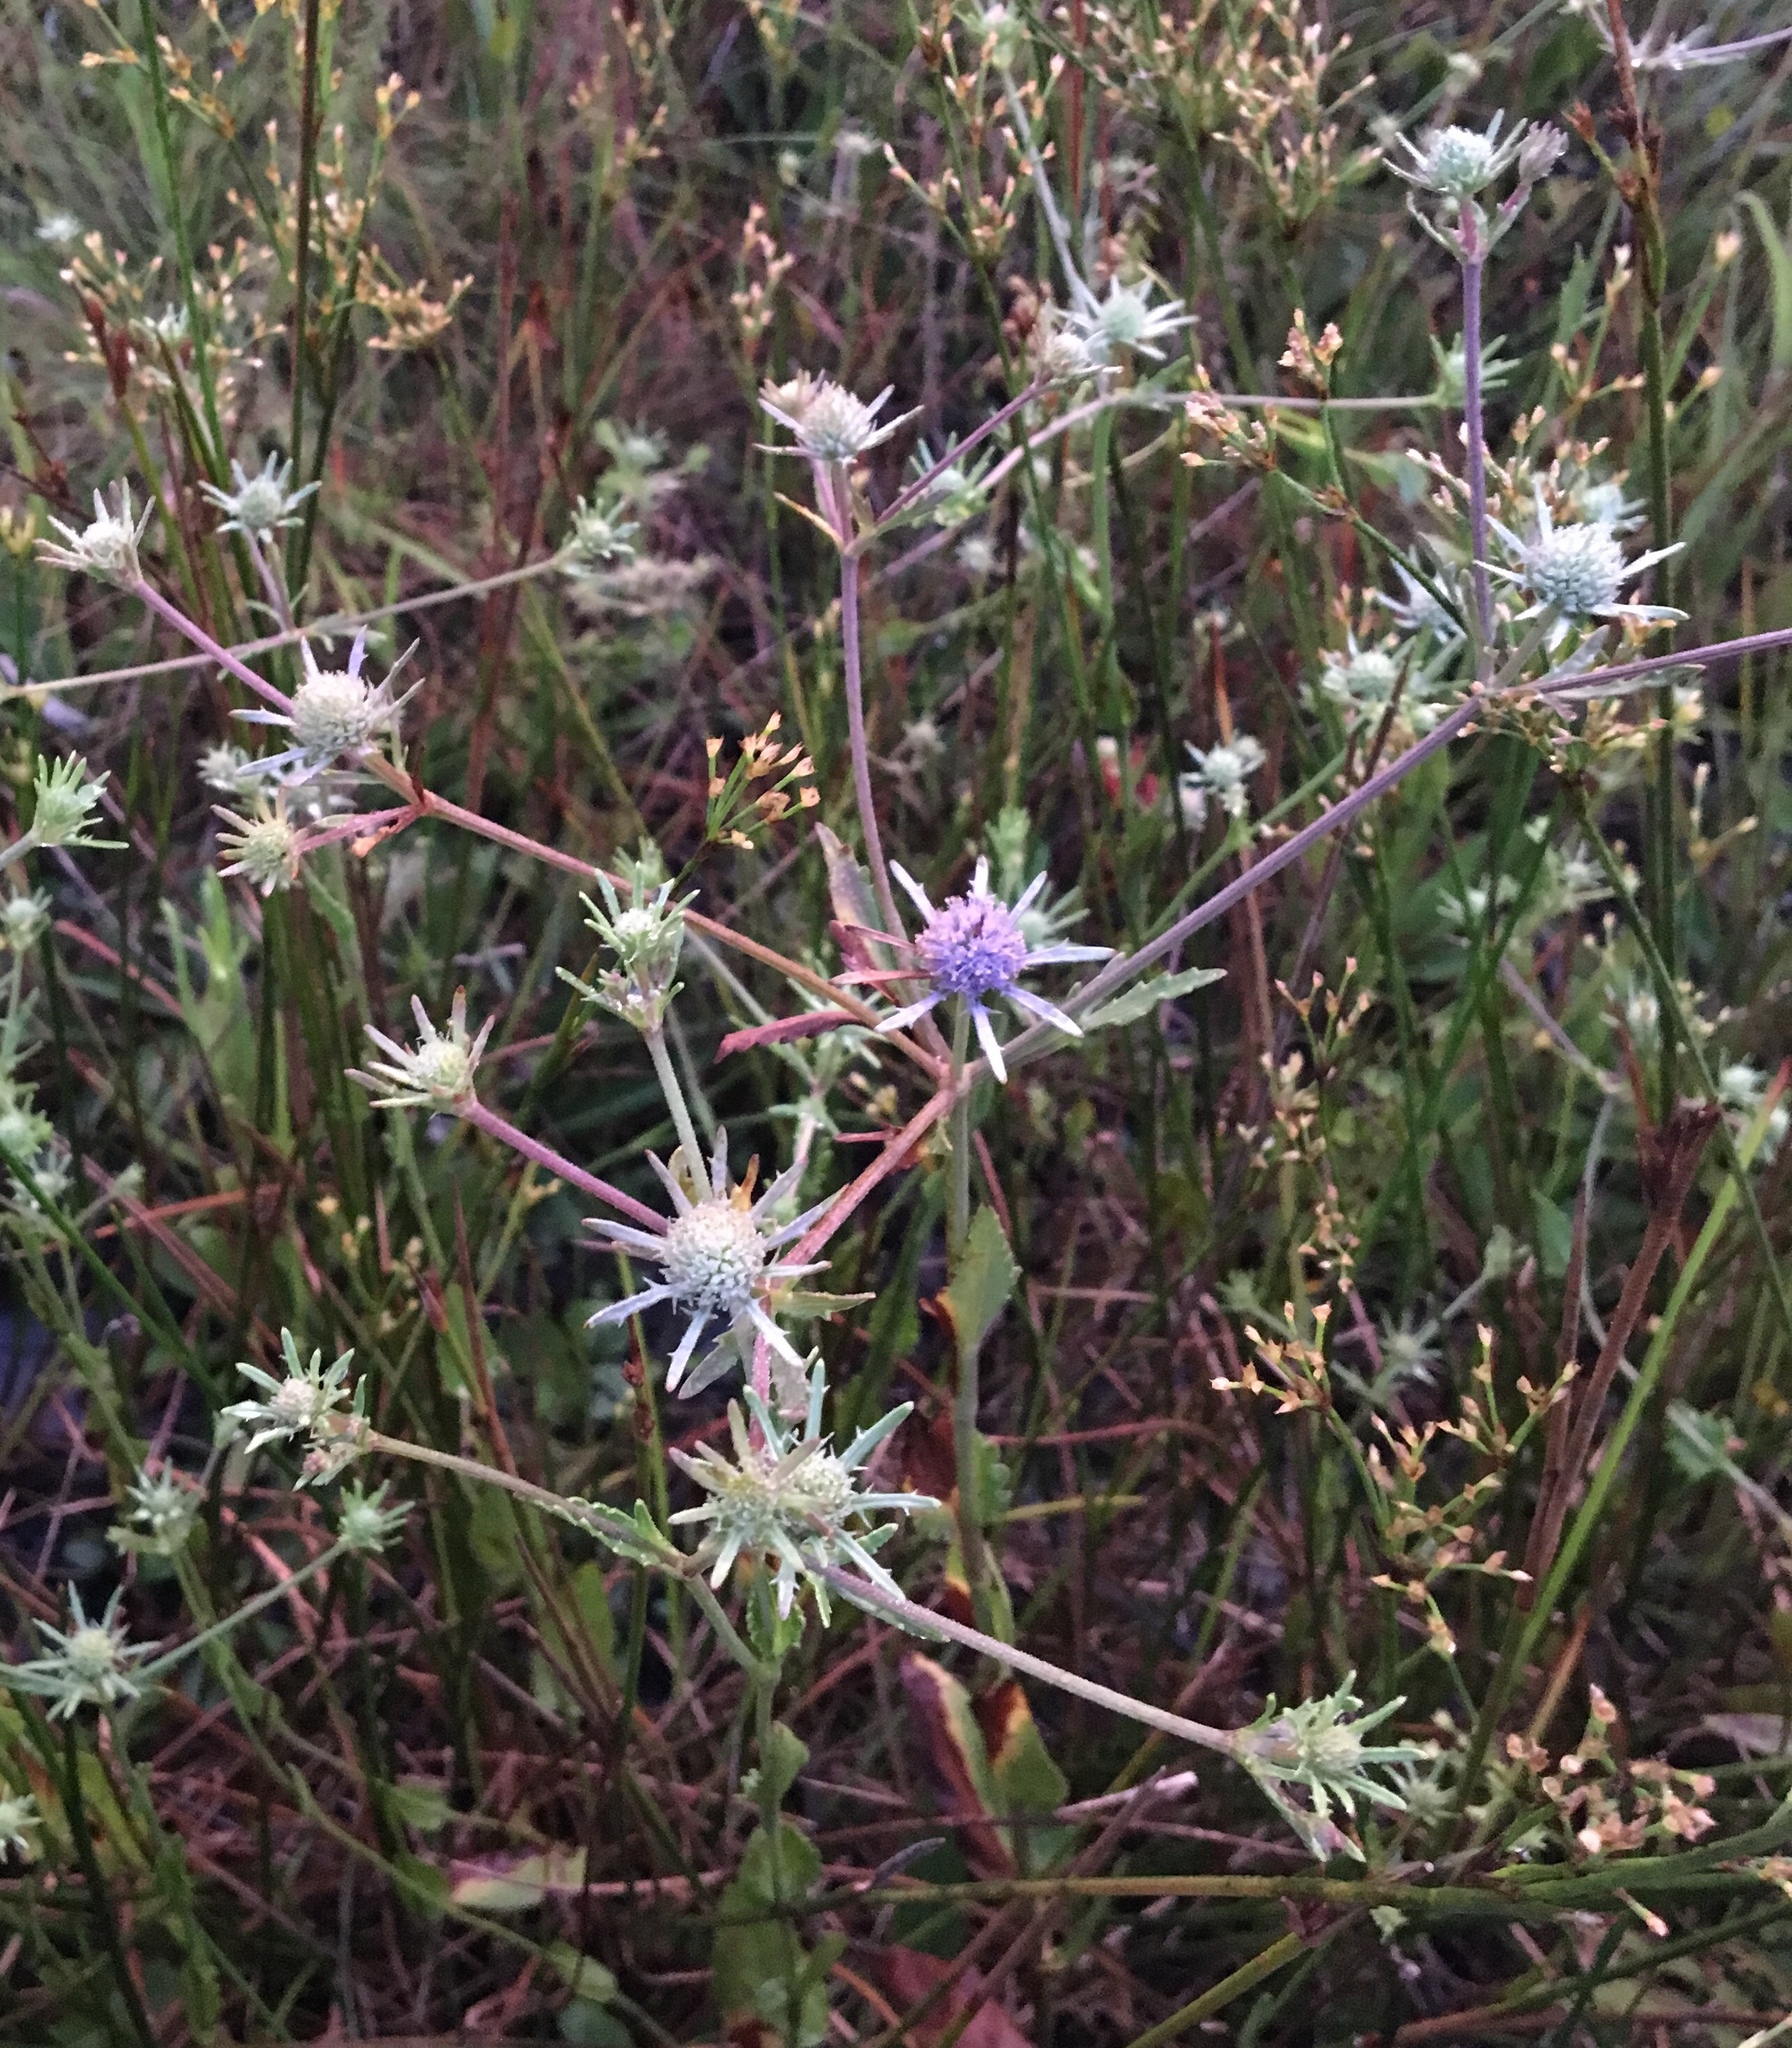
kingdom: Plantae
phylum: Tracheophyta
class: Magnoliopsida
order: Apiales
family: Apiaceae
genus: Eryngium
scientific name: Eryngium integrifolium
